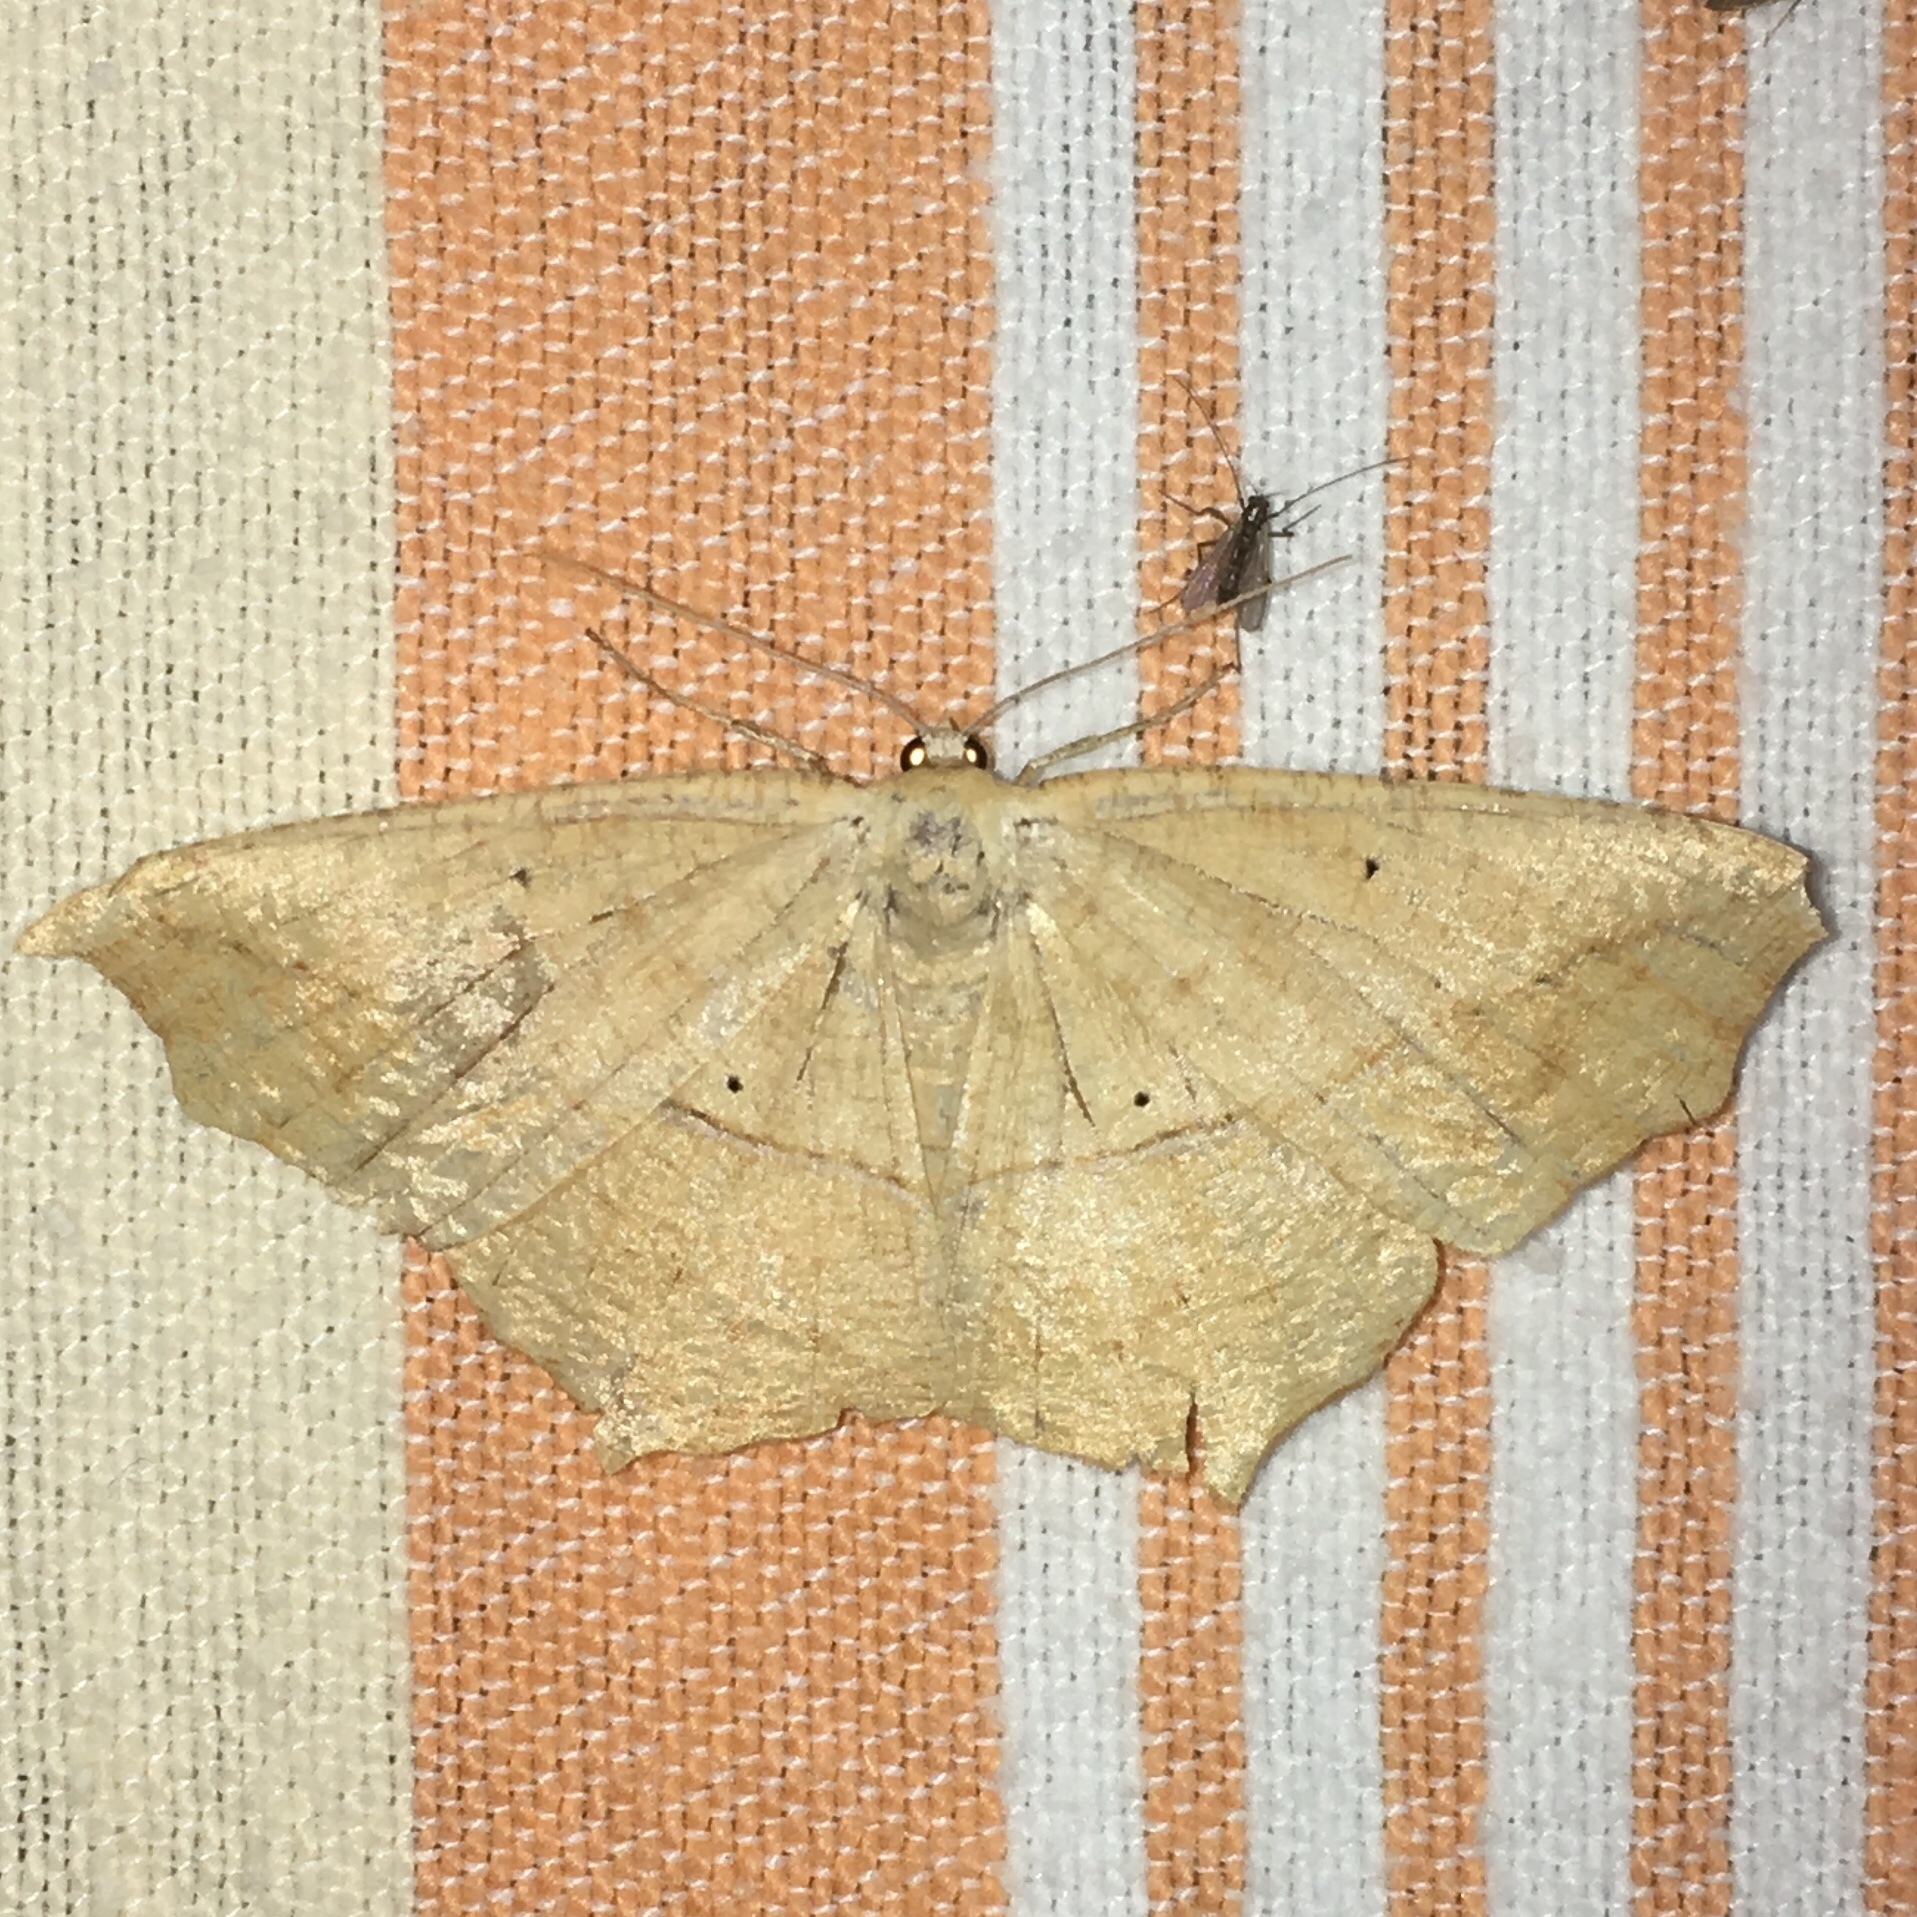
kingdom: Animalia
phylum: Arthropoda
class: Insecta
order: Lepidoptera
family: Geometridae
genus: Prochoerodes
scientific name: Prochoerodes lineola
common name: Large maple spanworm
